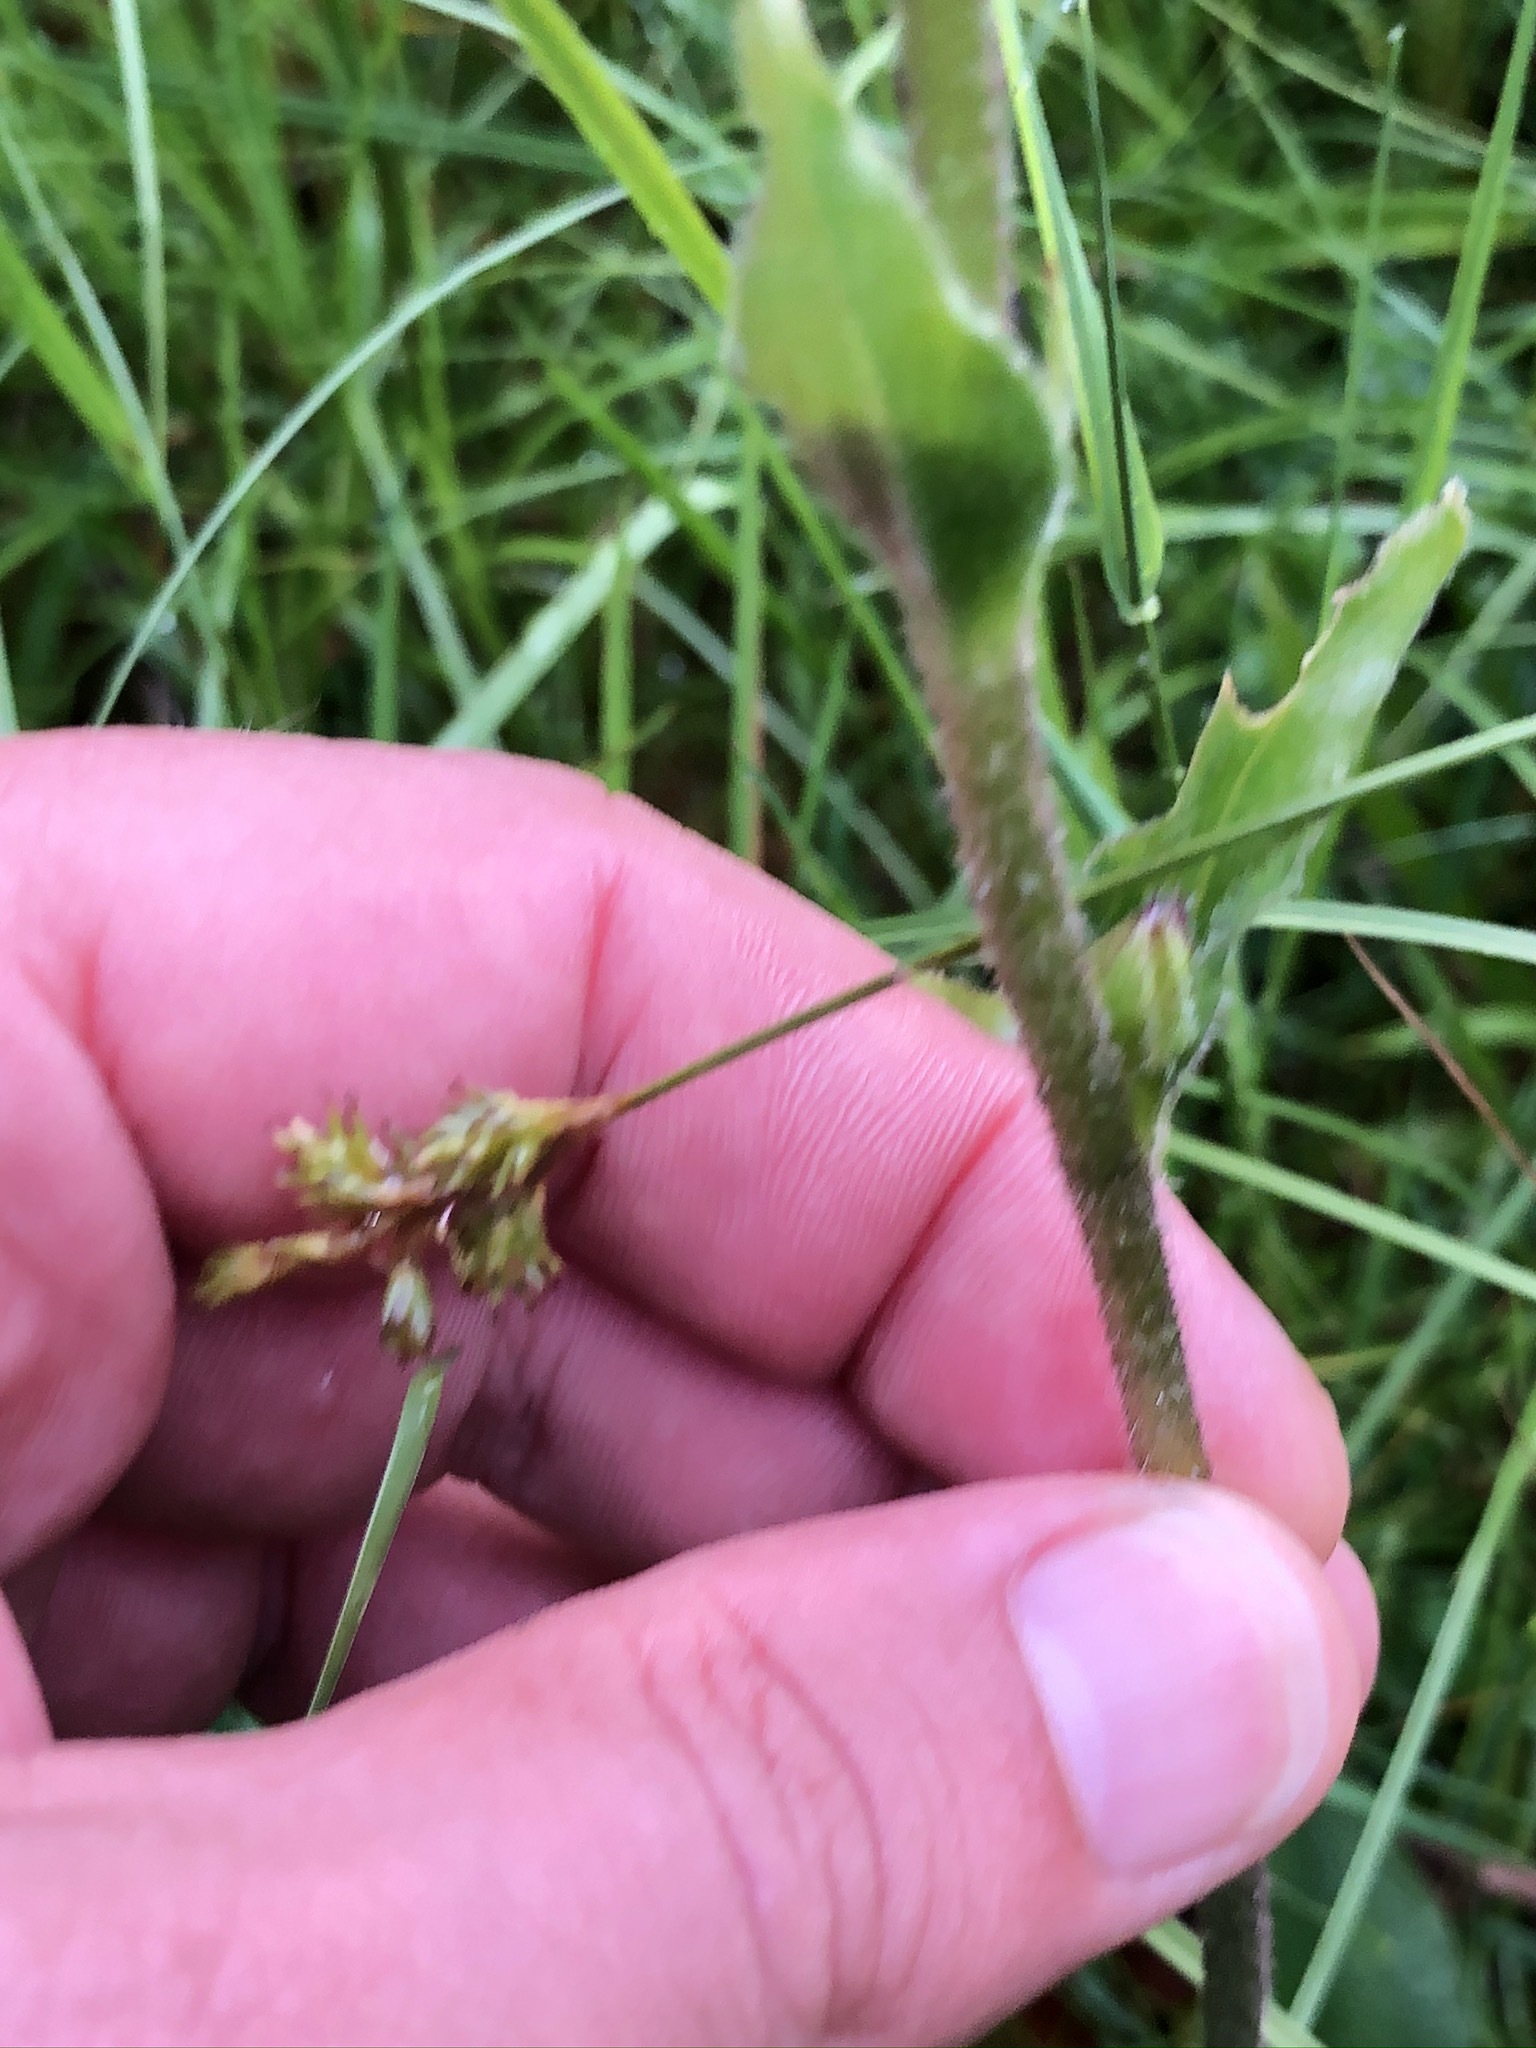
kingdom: Plantae
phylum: Tracheophyta
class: Magnoliopsida
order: Asterales
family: Asteraceae
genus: Arnica
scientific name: Arnica montana
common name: Leopard's bane
